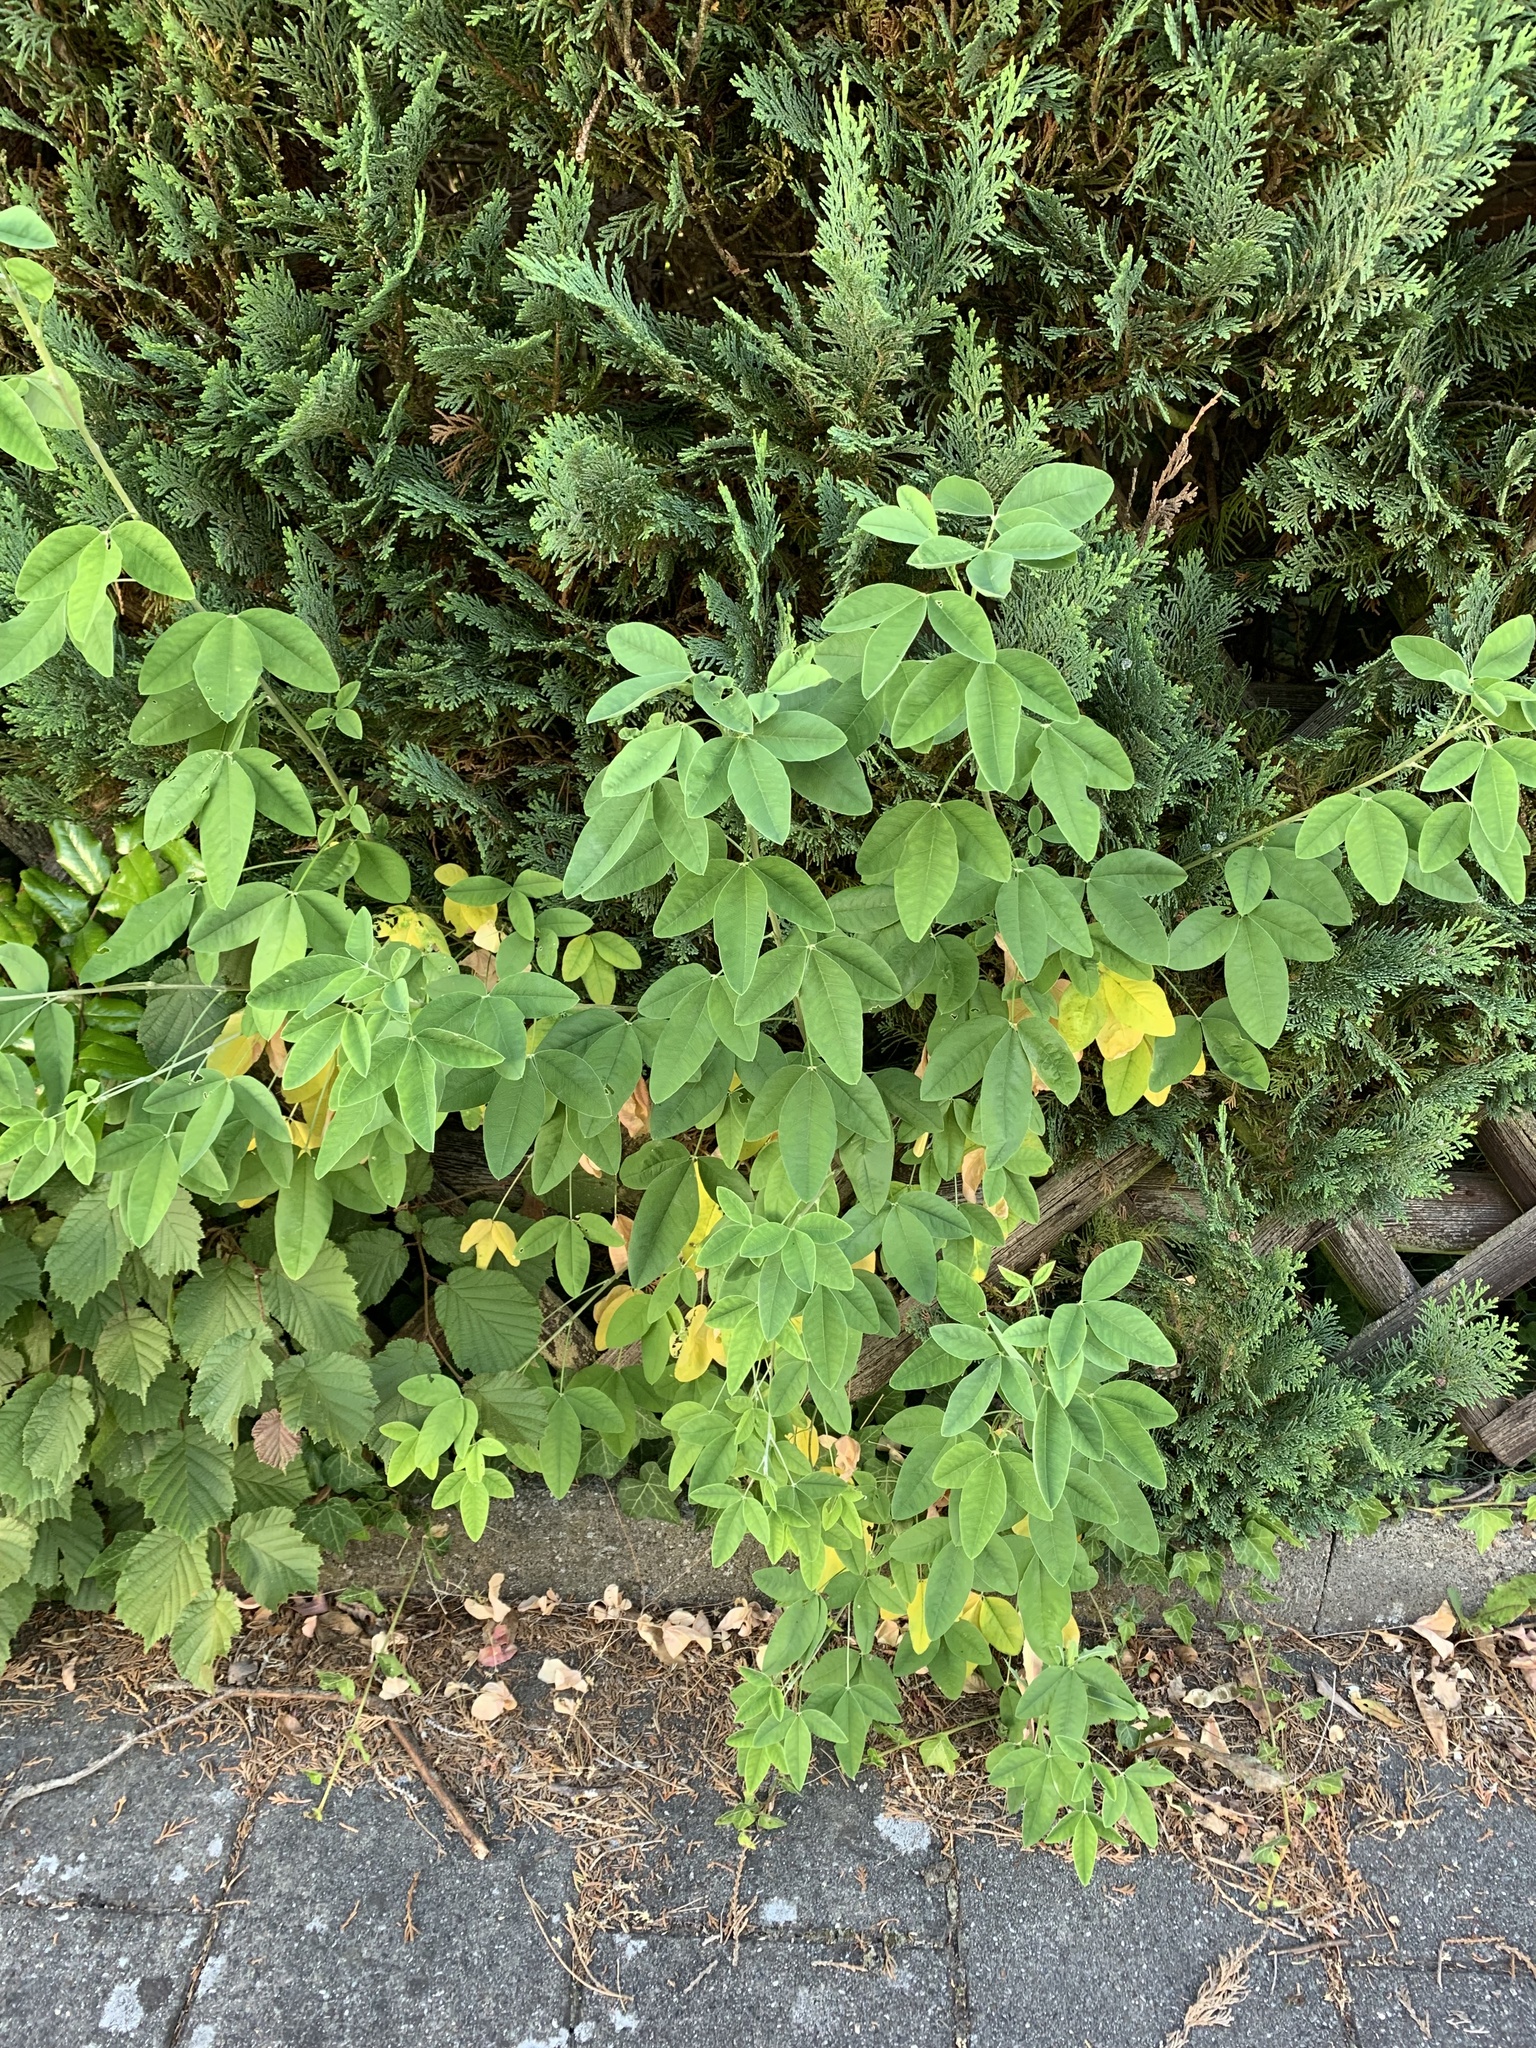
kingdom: Plantae
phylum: Tracheophyta
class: Magnoliopsida
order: Fabales
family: Fabaceae
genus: Laburnum
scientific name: Laburnum anagyroides
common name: Laburnum
